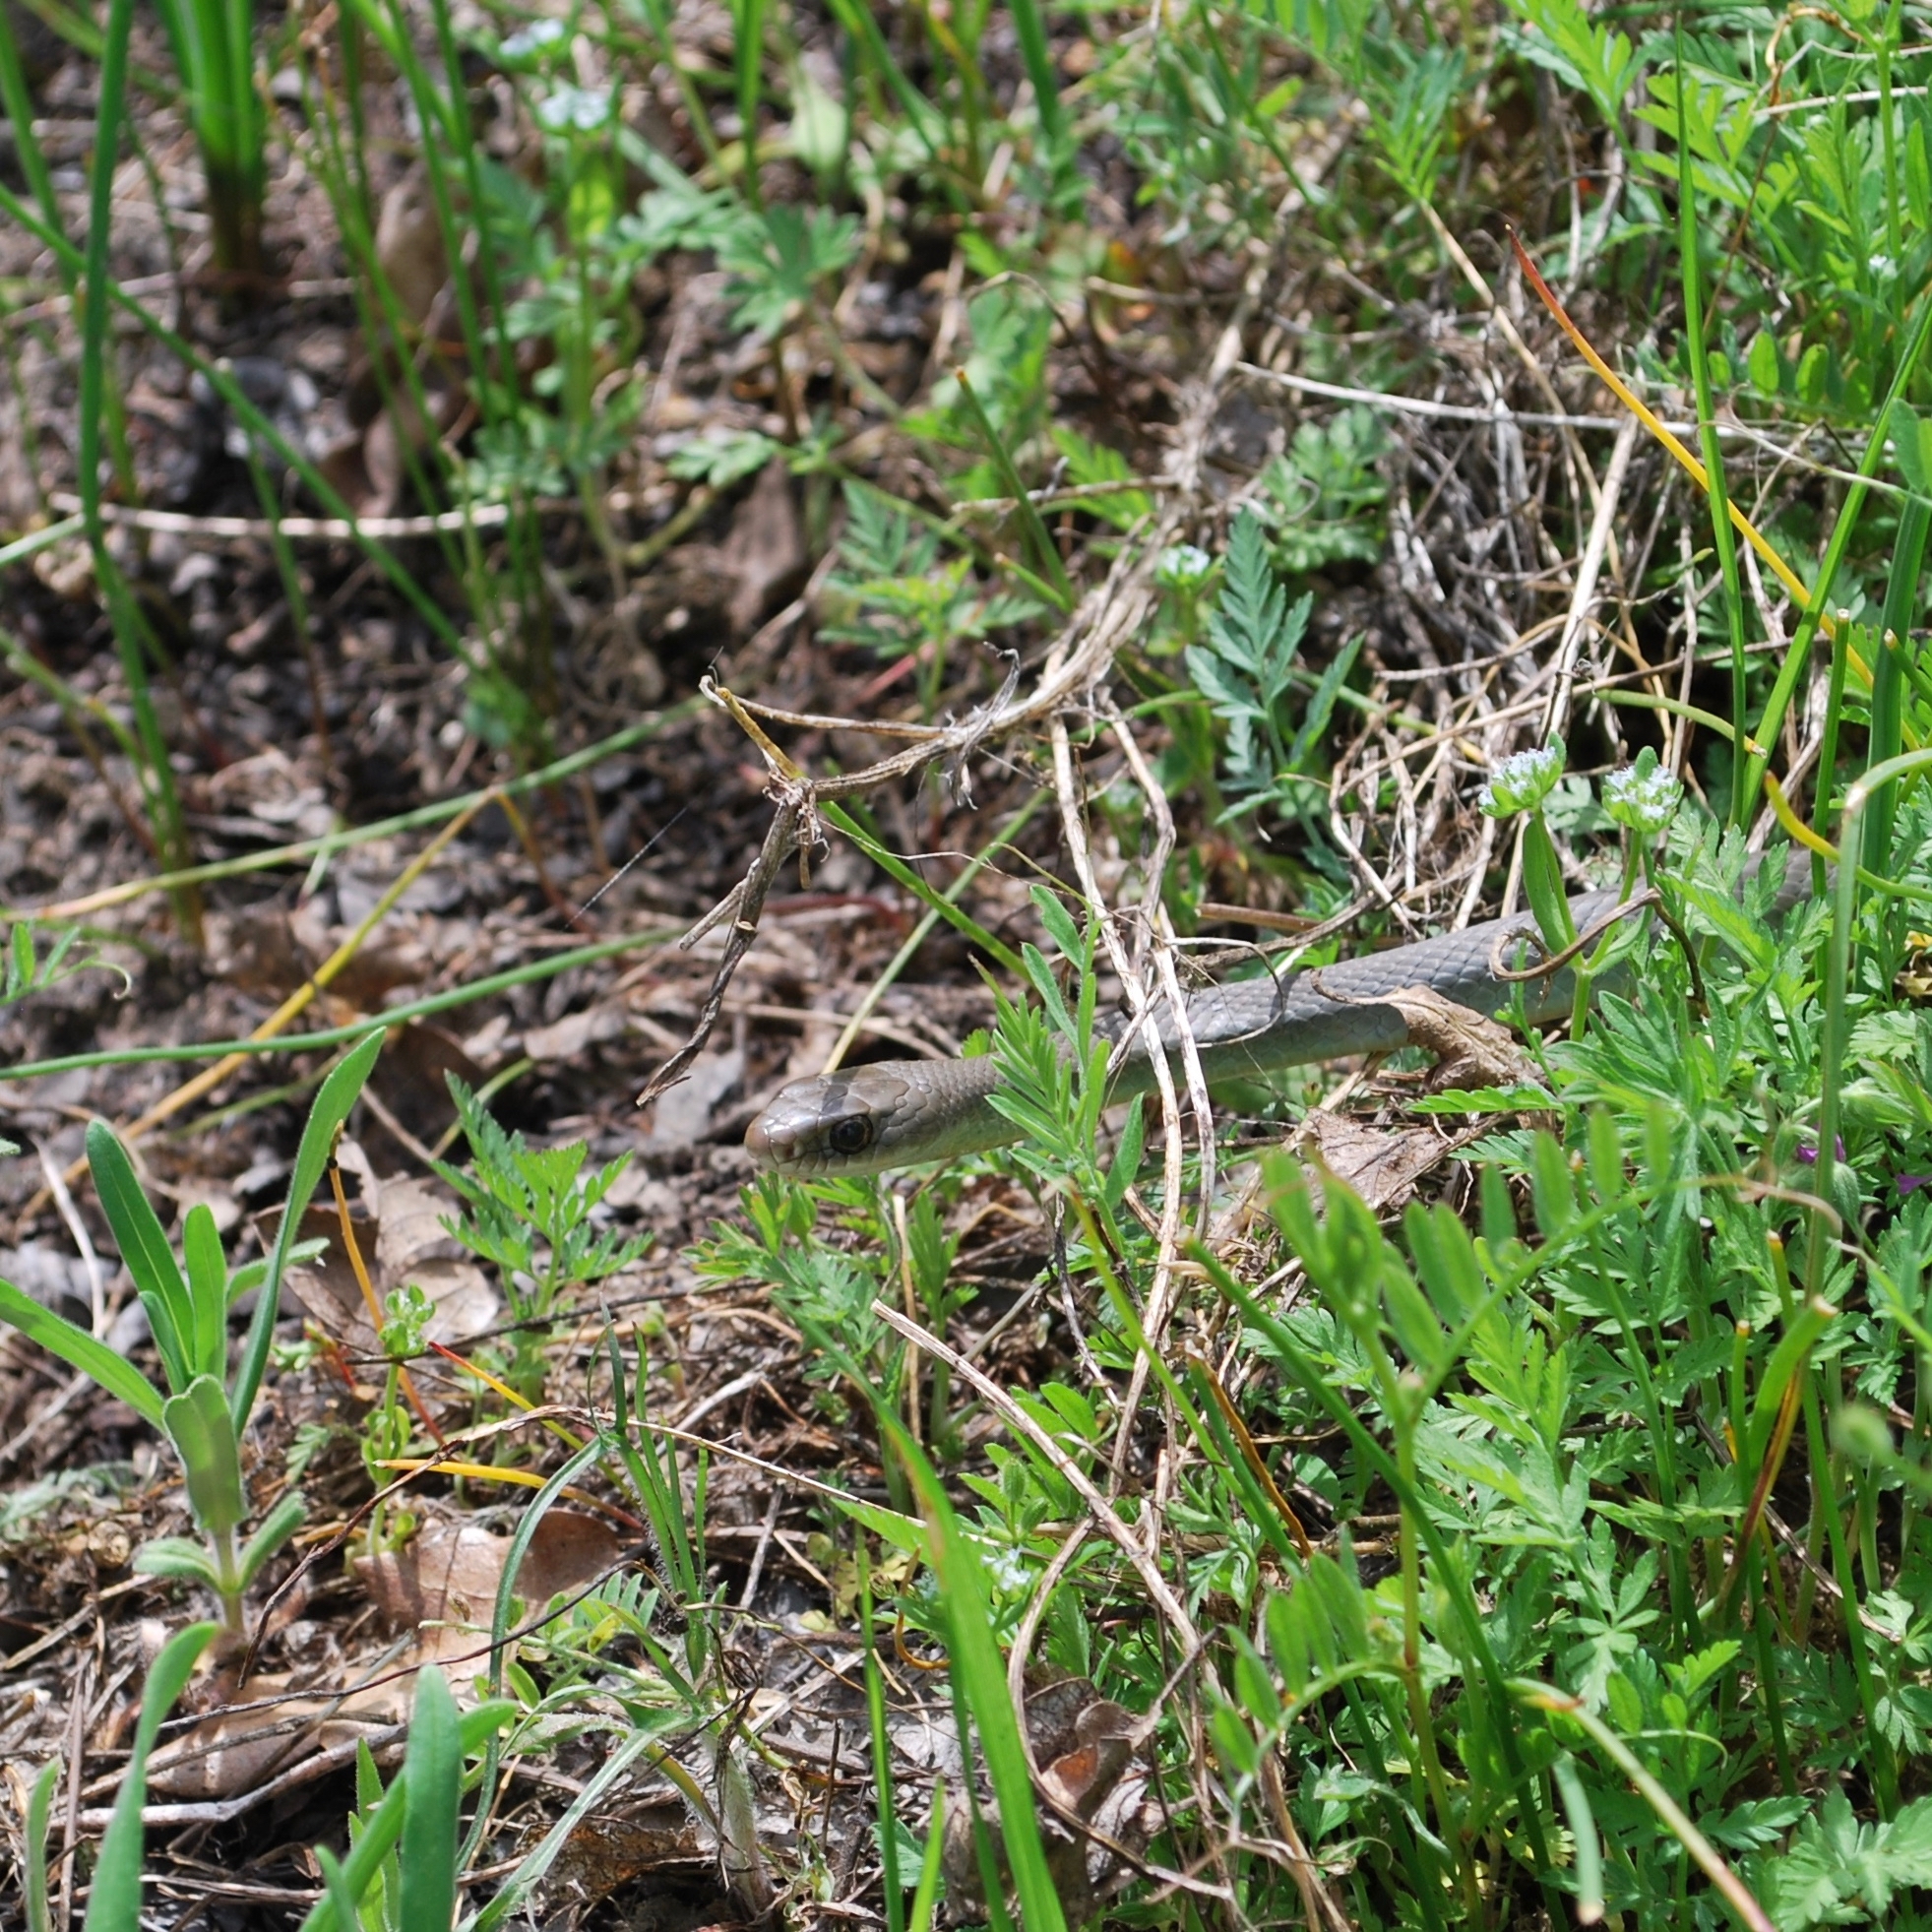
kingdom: Animalia
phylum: Chordata
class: Squamata
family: Colubridae
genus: Coluber
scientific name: Coluber constrictor
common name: Eastern racer
